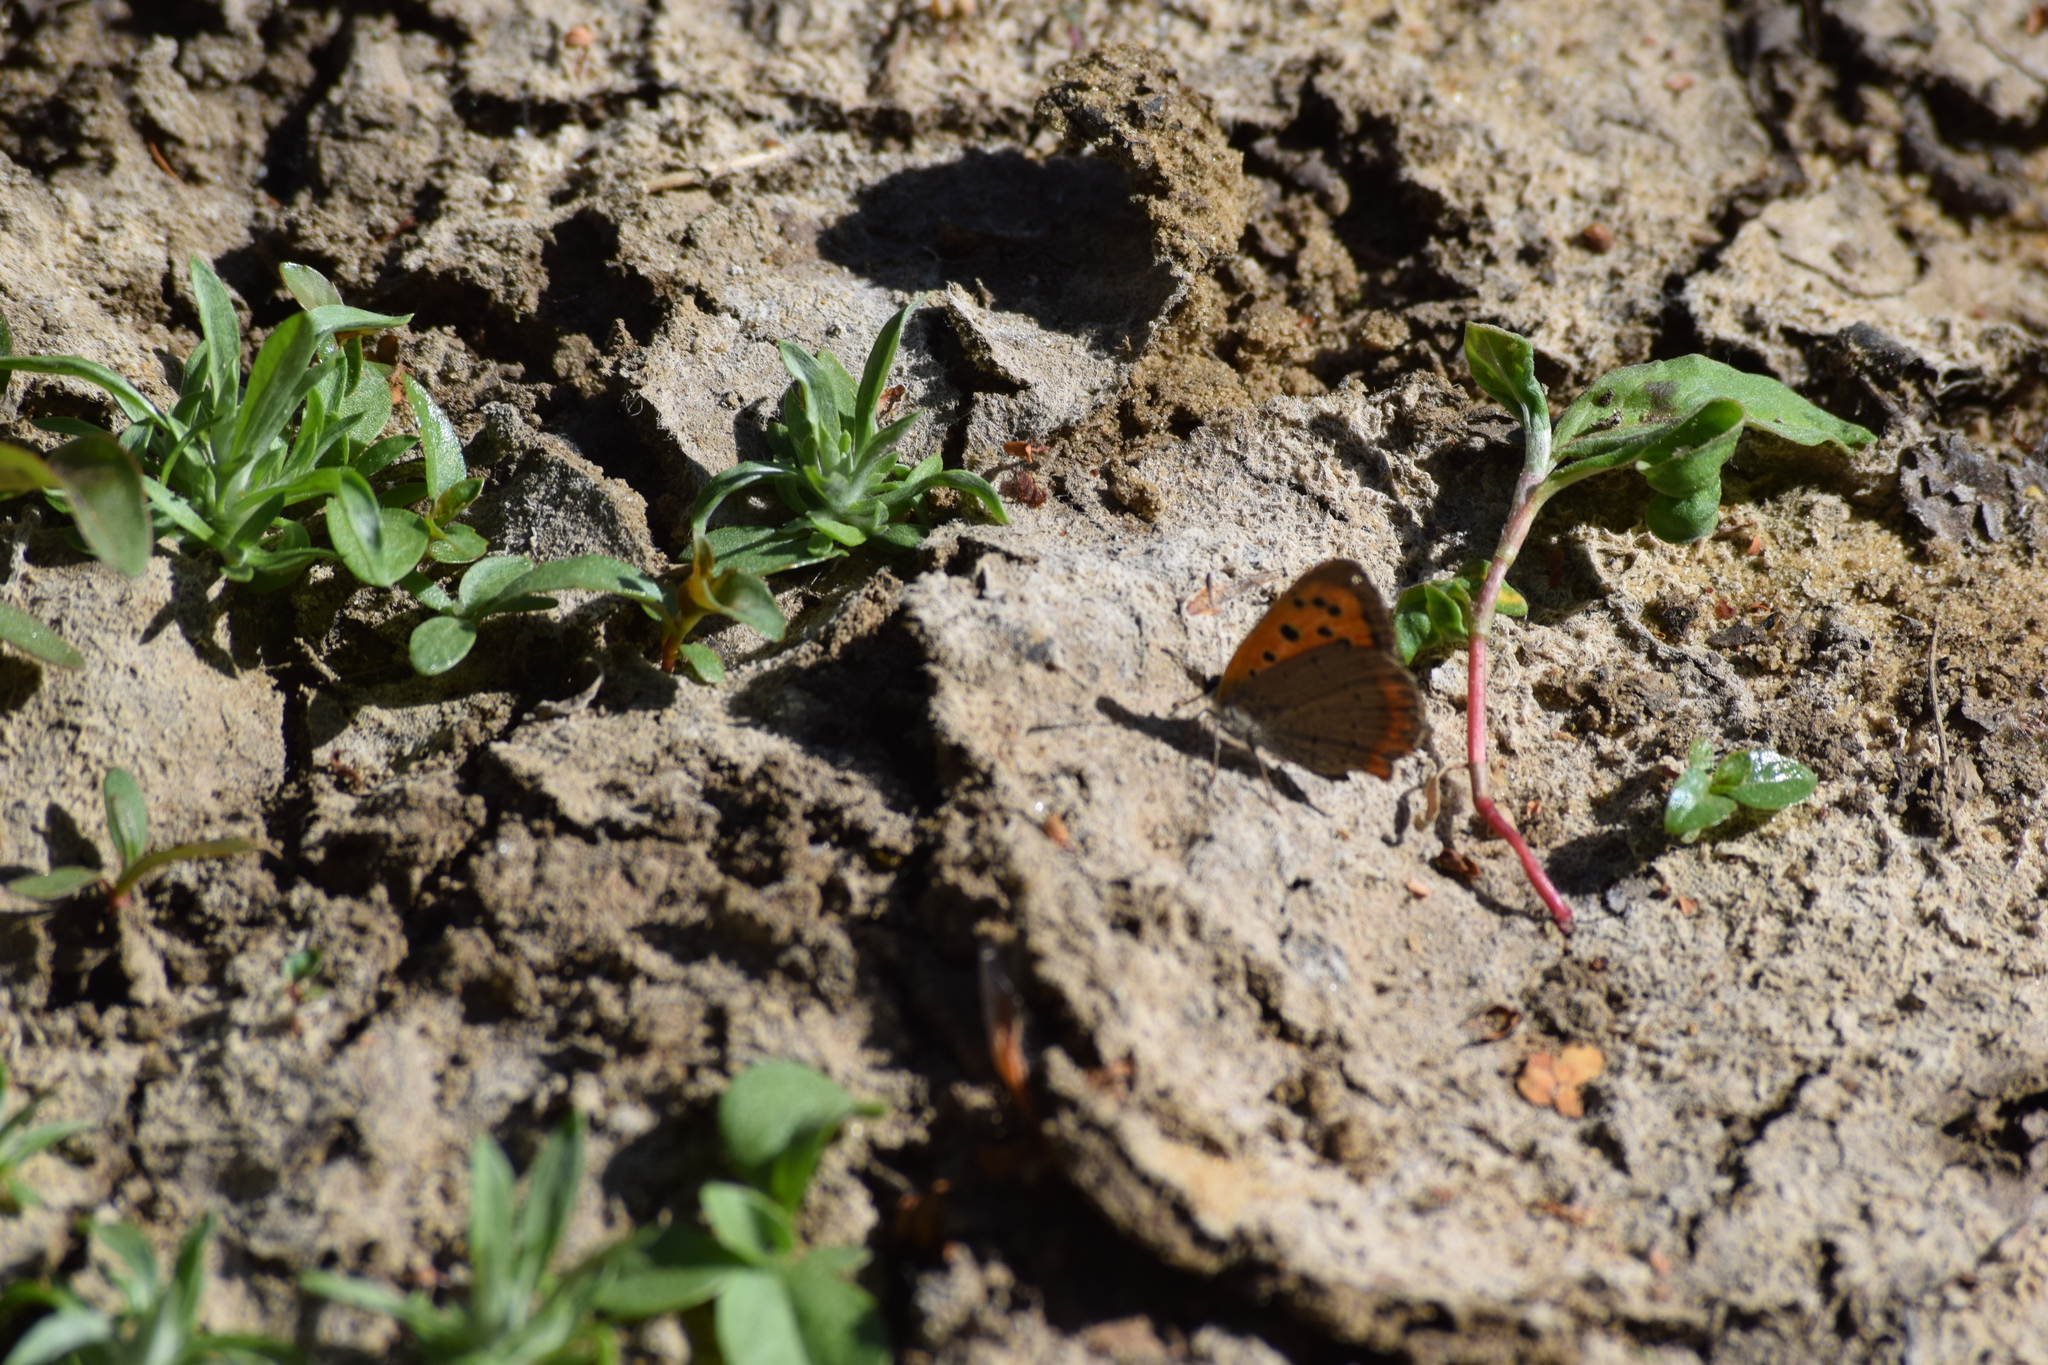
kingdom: Animalia
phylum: Arthropoda
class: Insecta
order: Lepidoptera
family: Lycaenidae
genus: Lycaena
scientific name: Lycaena phlaeas
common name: Small copper
